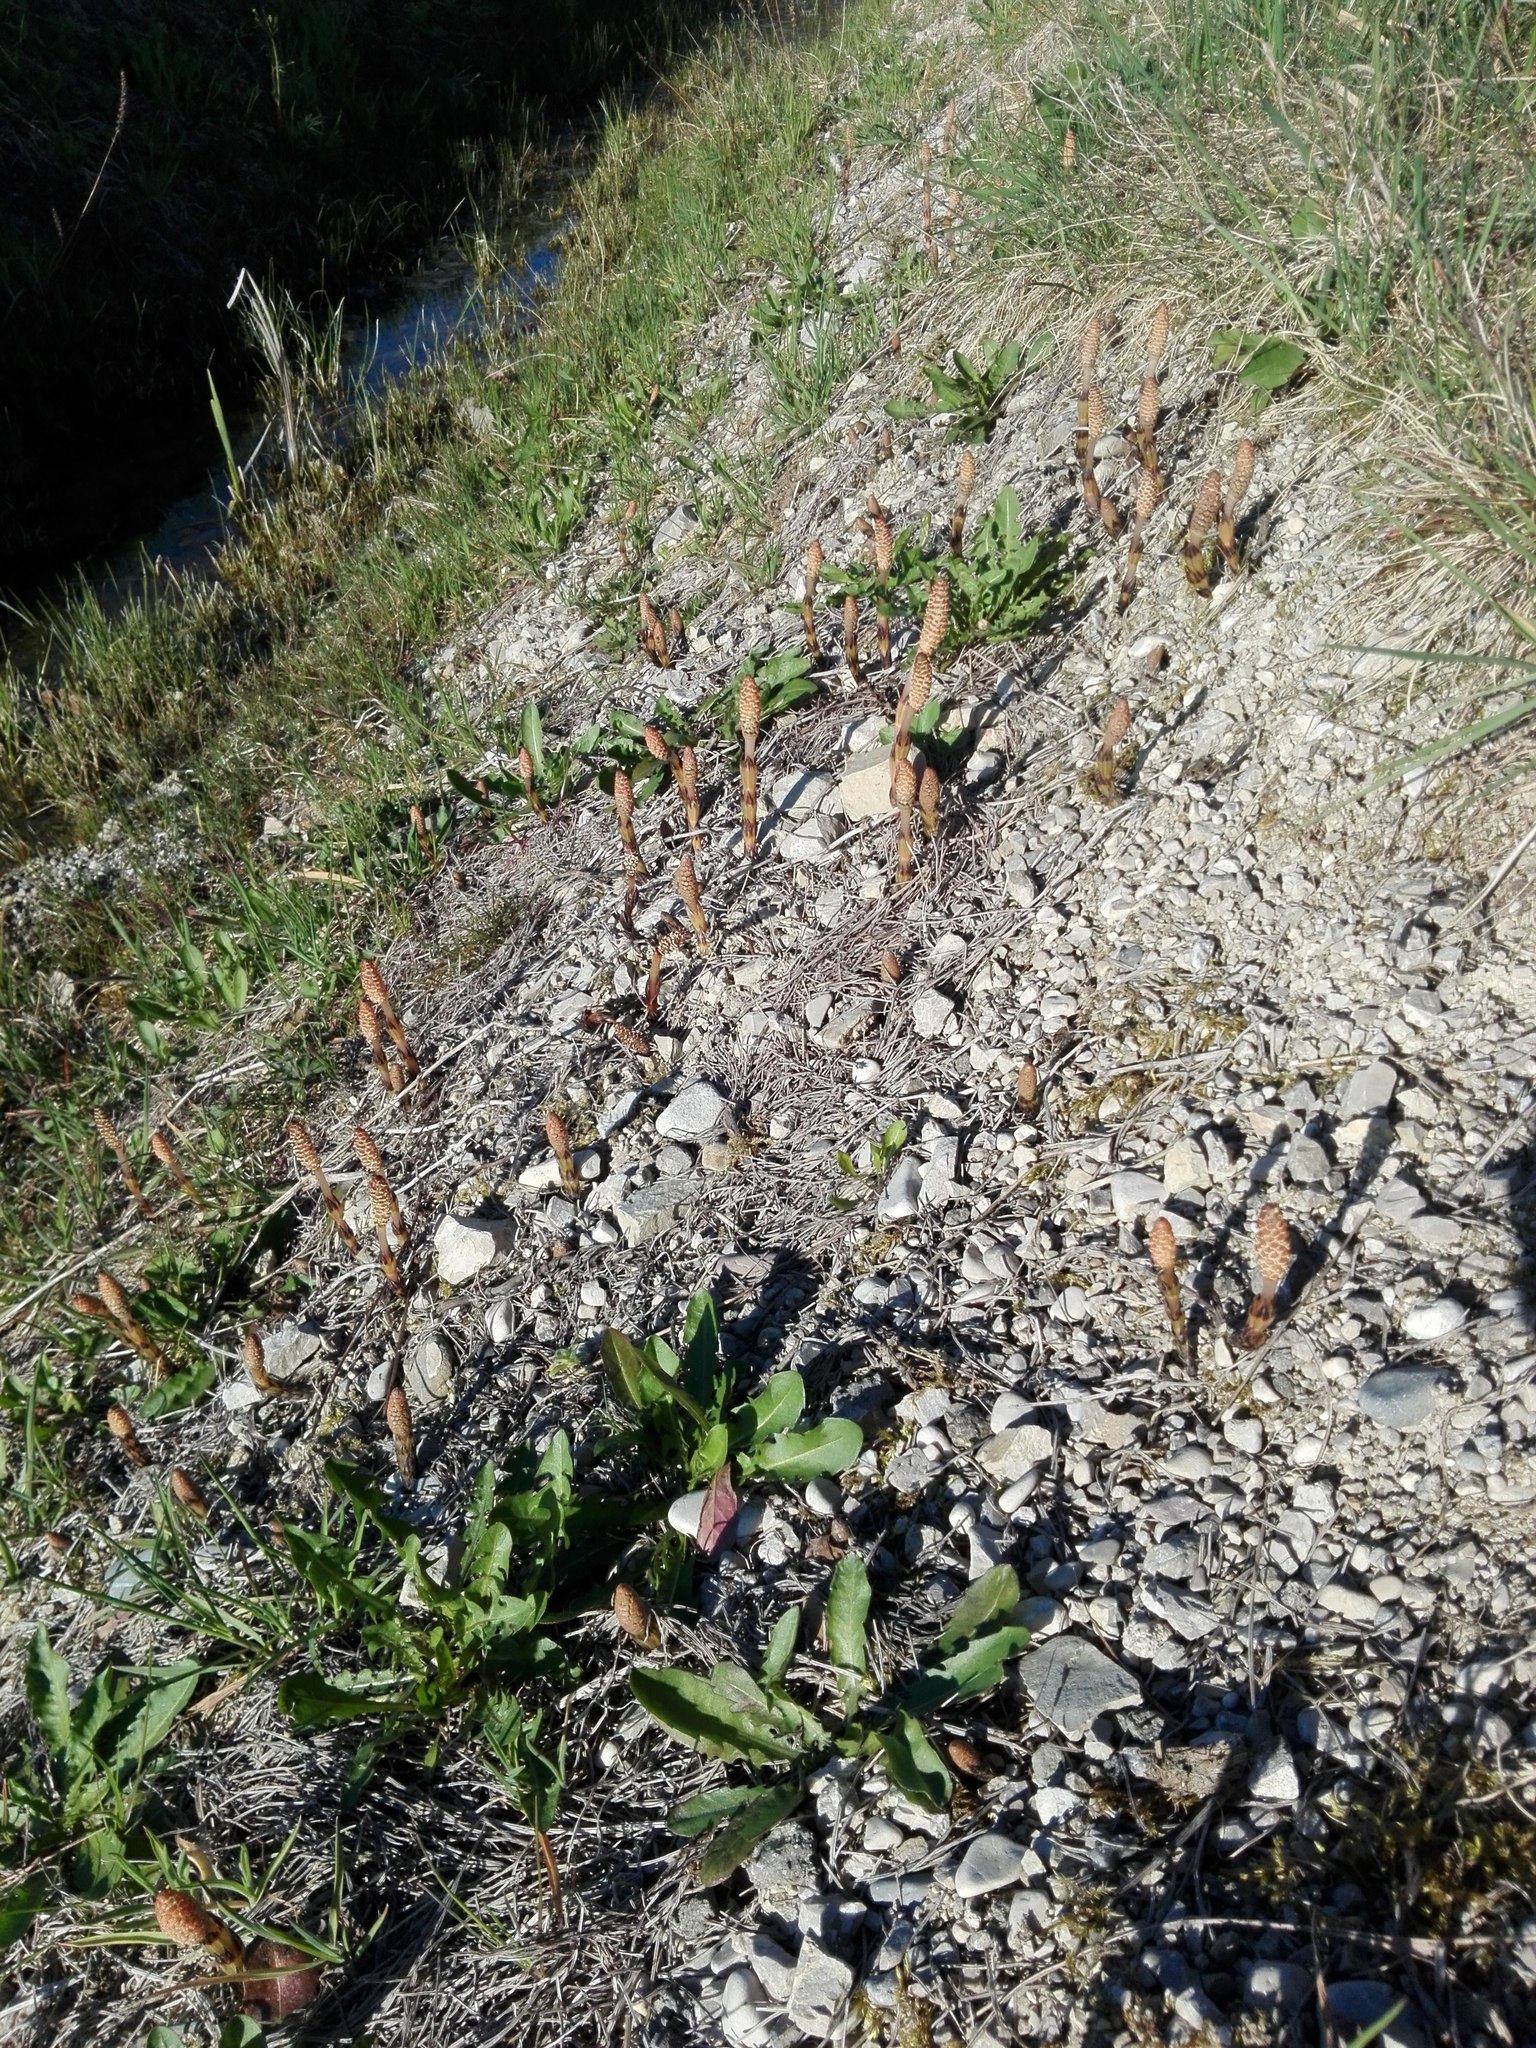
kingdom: Plantae
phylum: Tracheophyta
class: Polypodiopsida
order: Equisetales
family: Equisetaceae
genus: Equisetum
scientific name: Equisetum arvense
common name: Field horsetail
